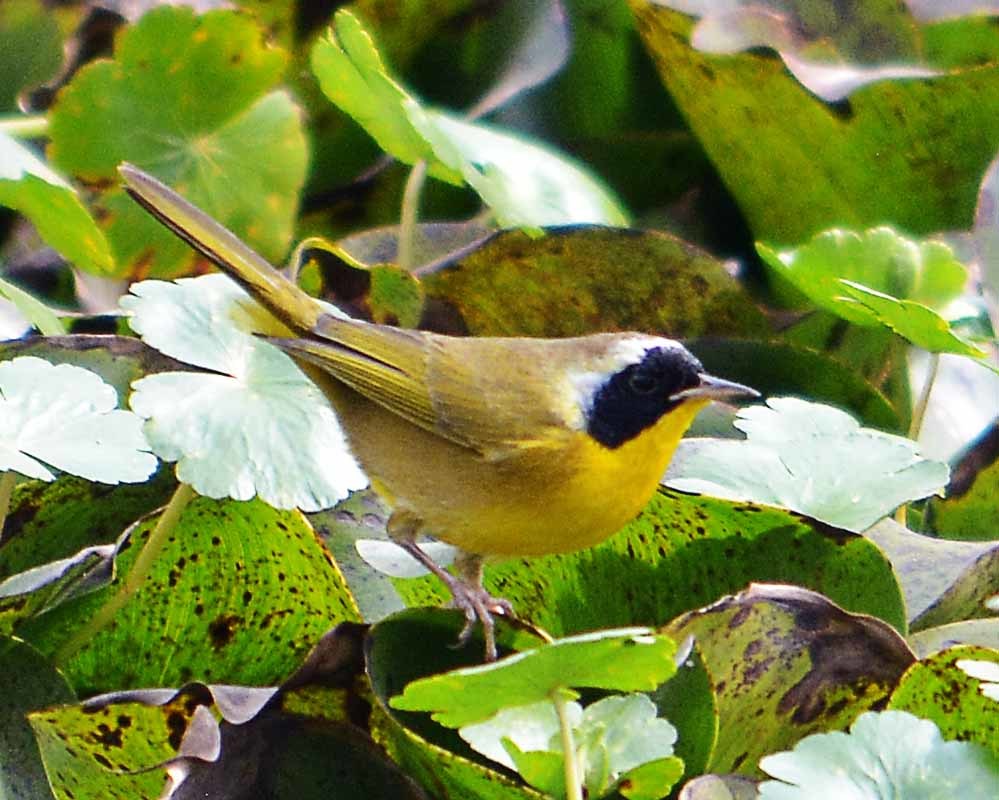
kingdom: Animalia
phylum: Chordata
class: Aves
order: Passeriformes
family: Parulidae
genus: Geothlypis
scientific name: Geothlypis trichas
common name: Common yellowthroat
